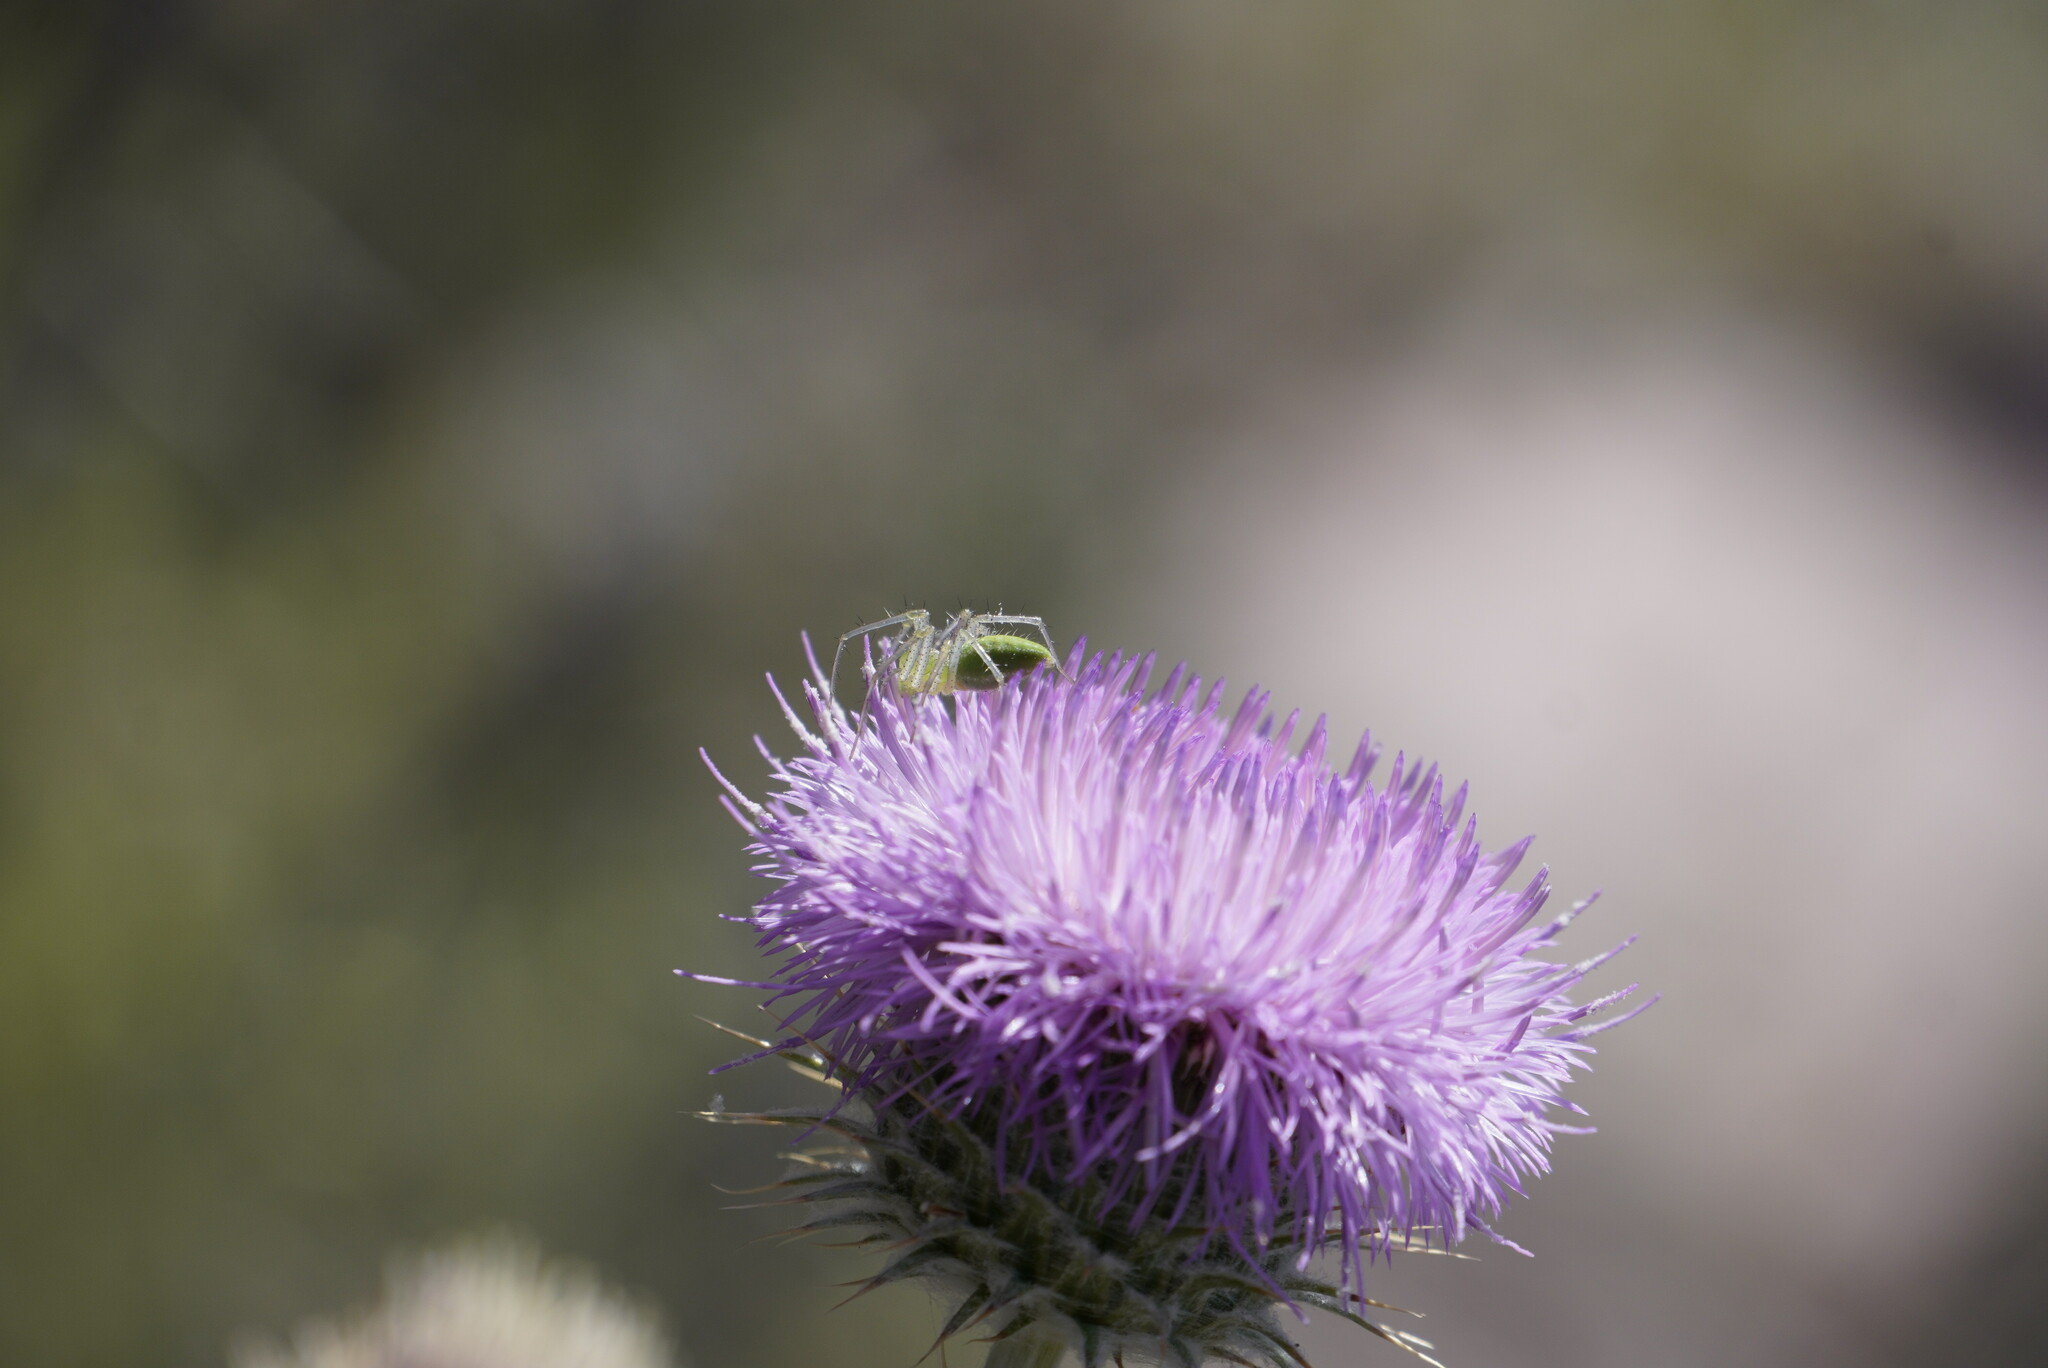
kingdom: Plantae
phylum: Tracheophyta
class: Magnoliopsida
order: Asterales
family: Asteraceae
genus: Cirsium
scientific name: Cirsium neomexicanum
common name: New mexico thistle
